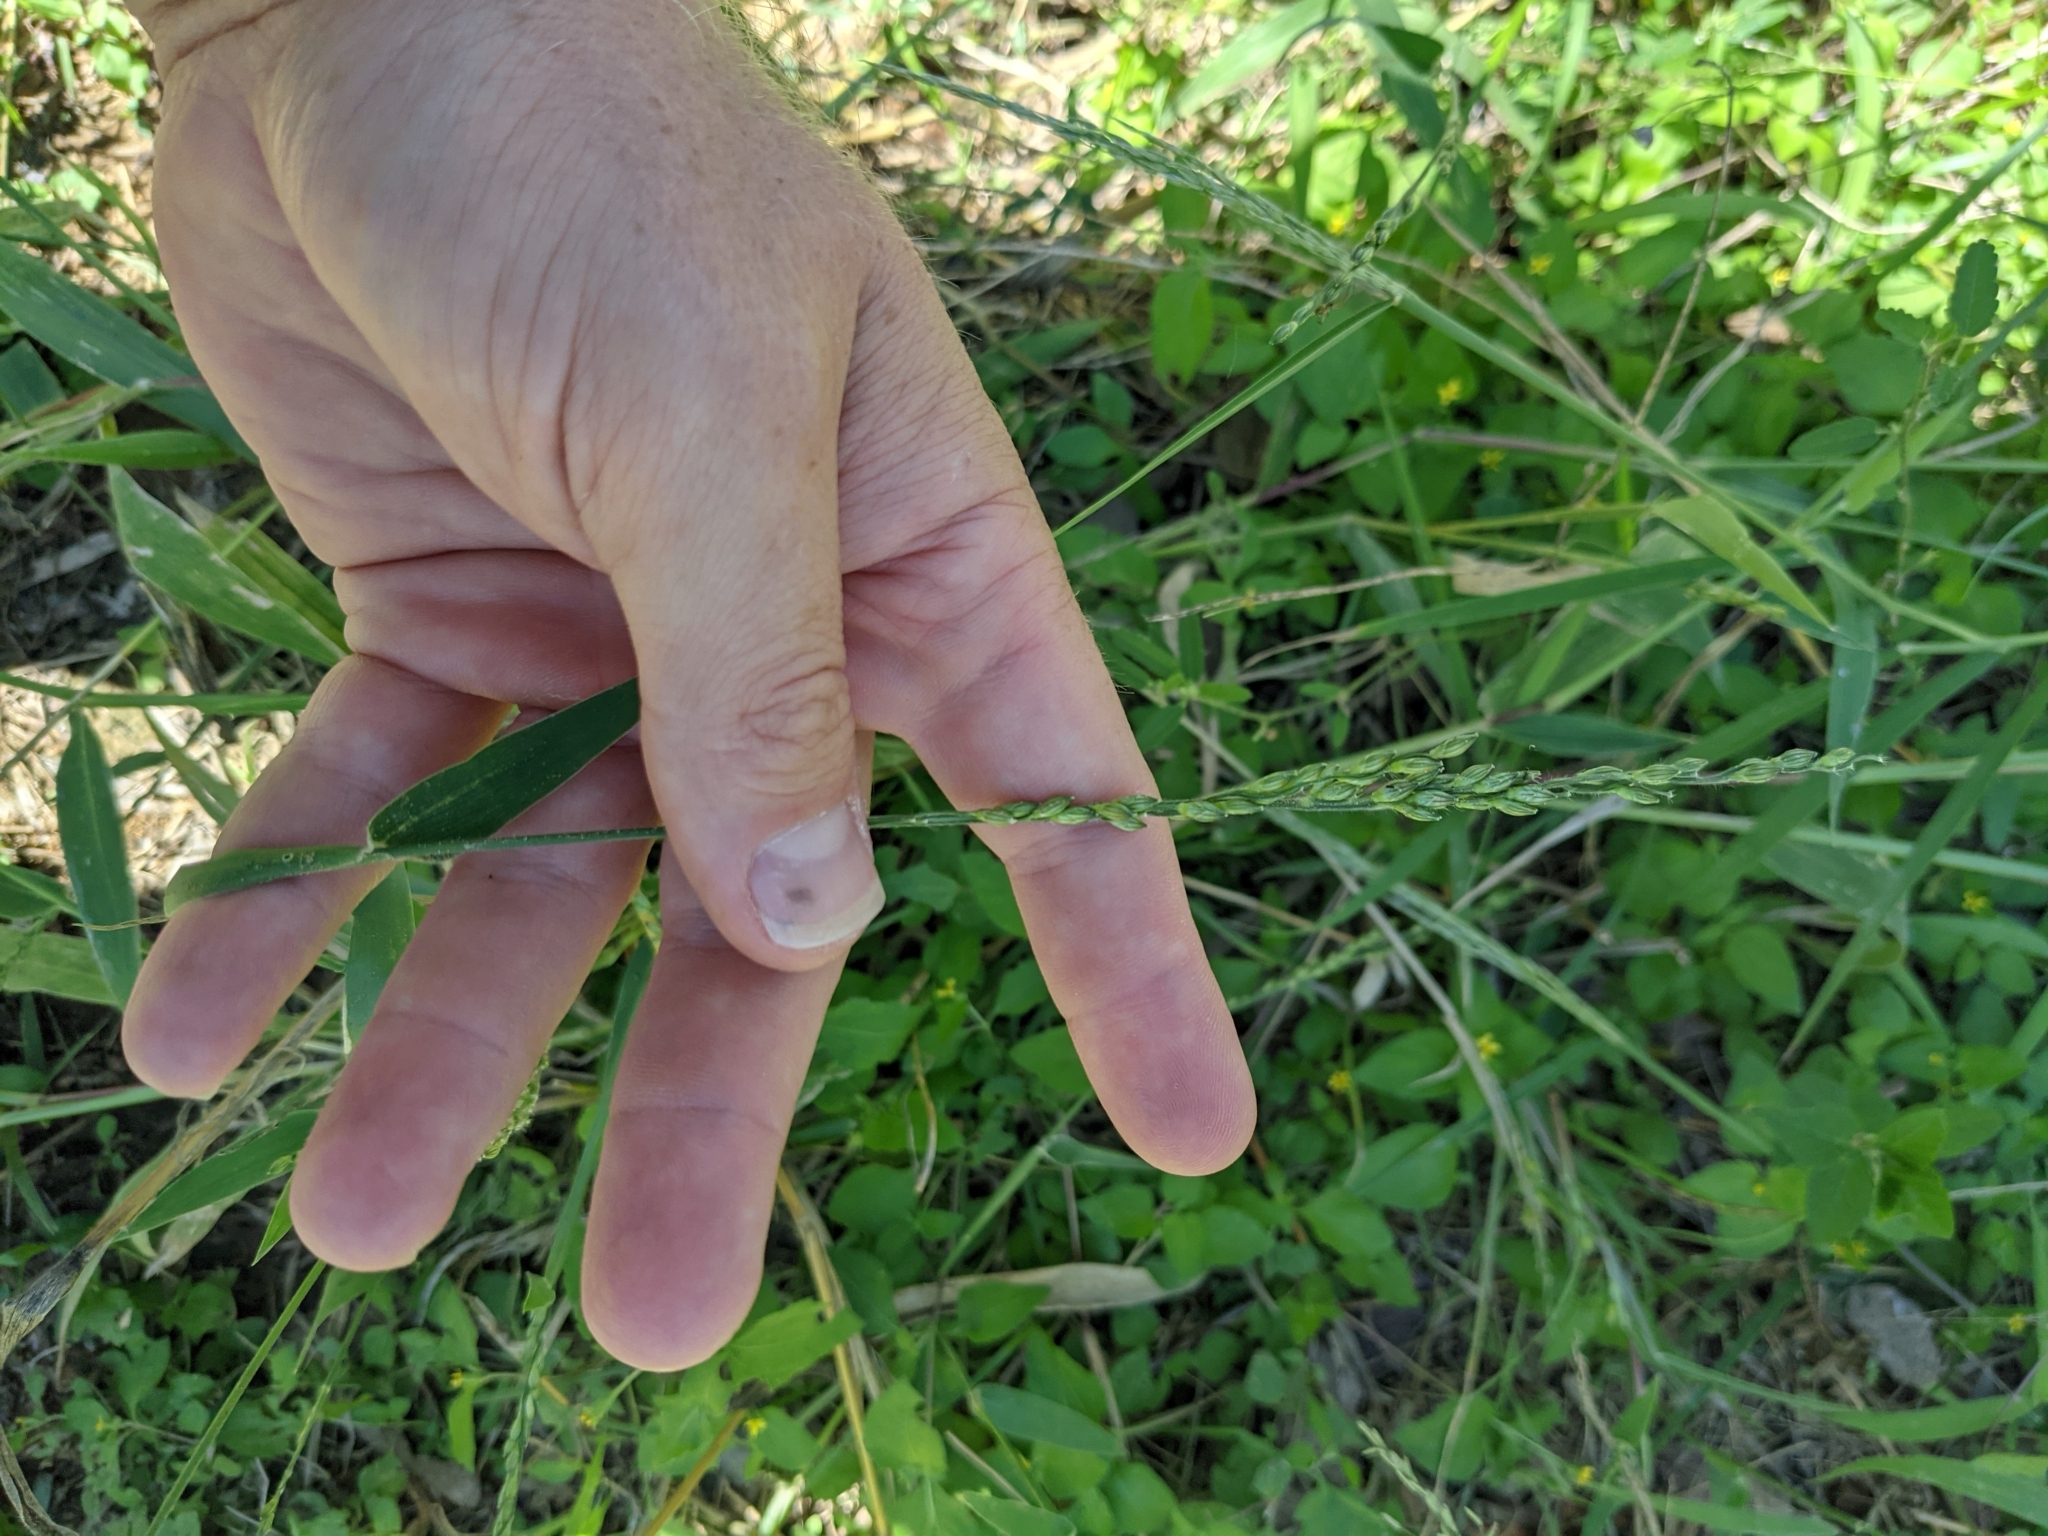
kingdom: Plantae
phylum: Tracheophyta
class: Liliopsida
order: Poales
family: Poaceae
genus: Urochloa
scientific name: Urochloa texana
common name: Texas millet
